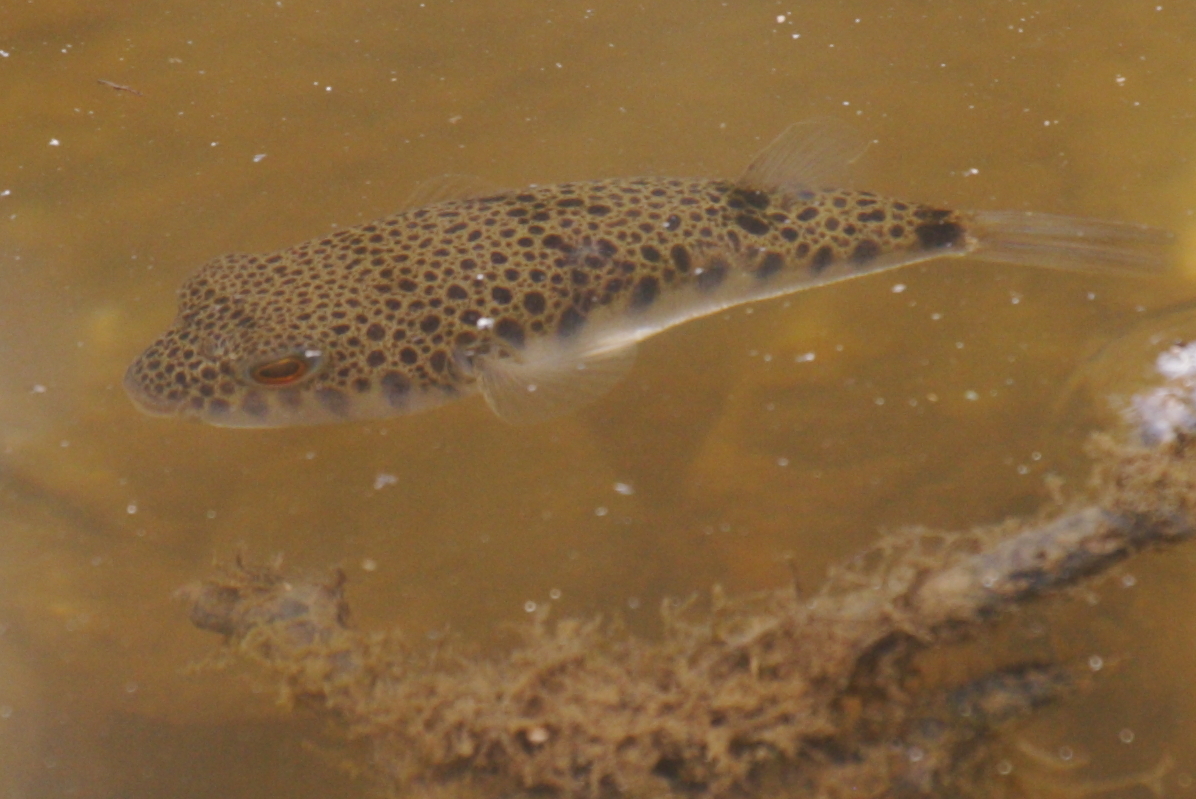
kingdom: Animalia
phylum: Chordata
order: Tetraodontiformes
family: Tetraodontidae
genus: Tetractenos
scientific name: Tetractenos hamiltoni
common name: Common toadfish
